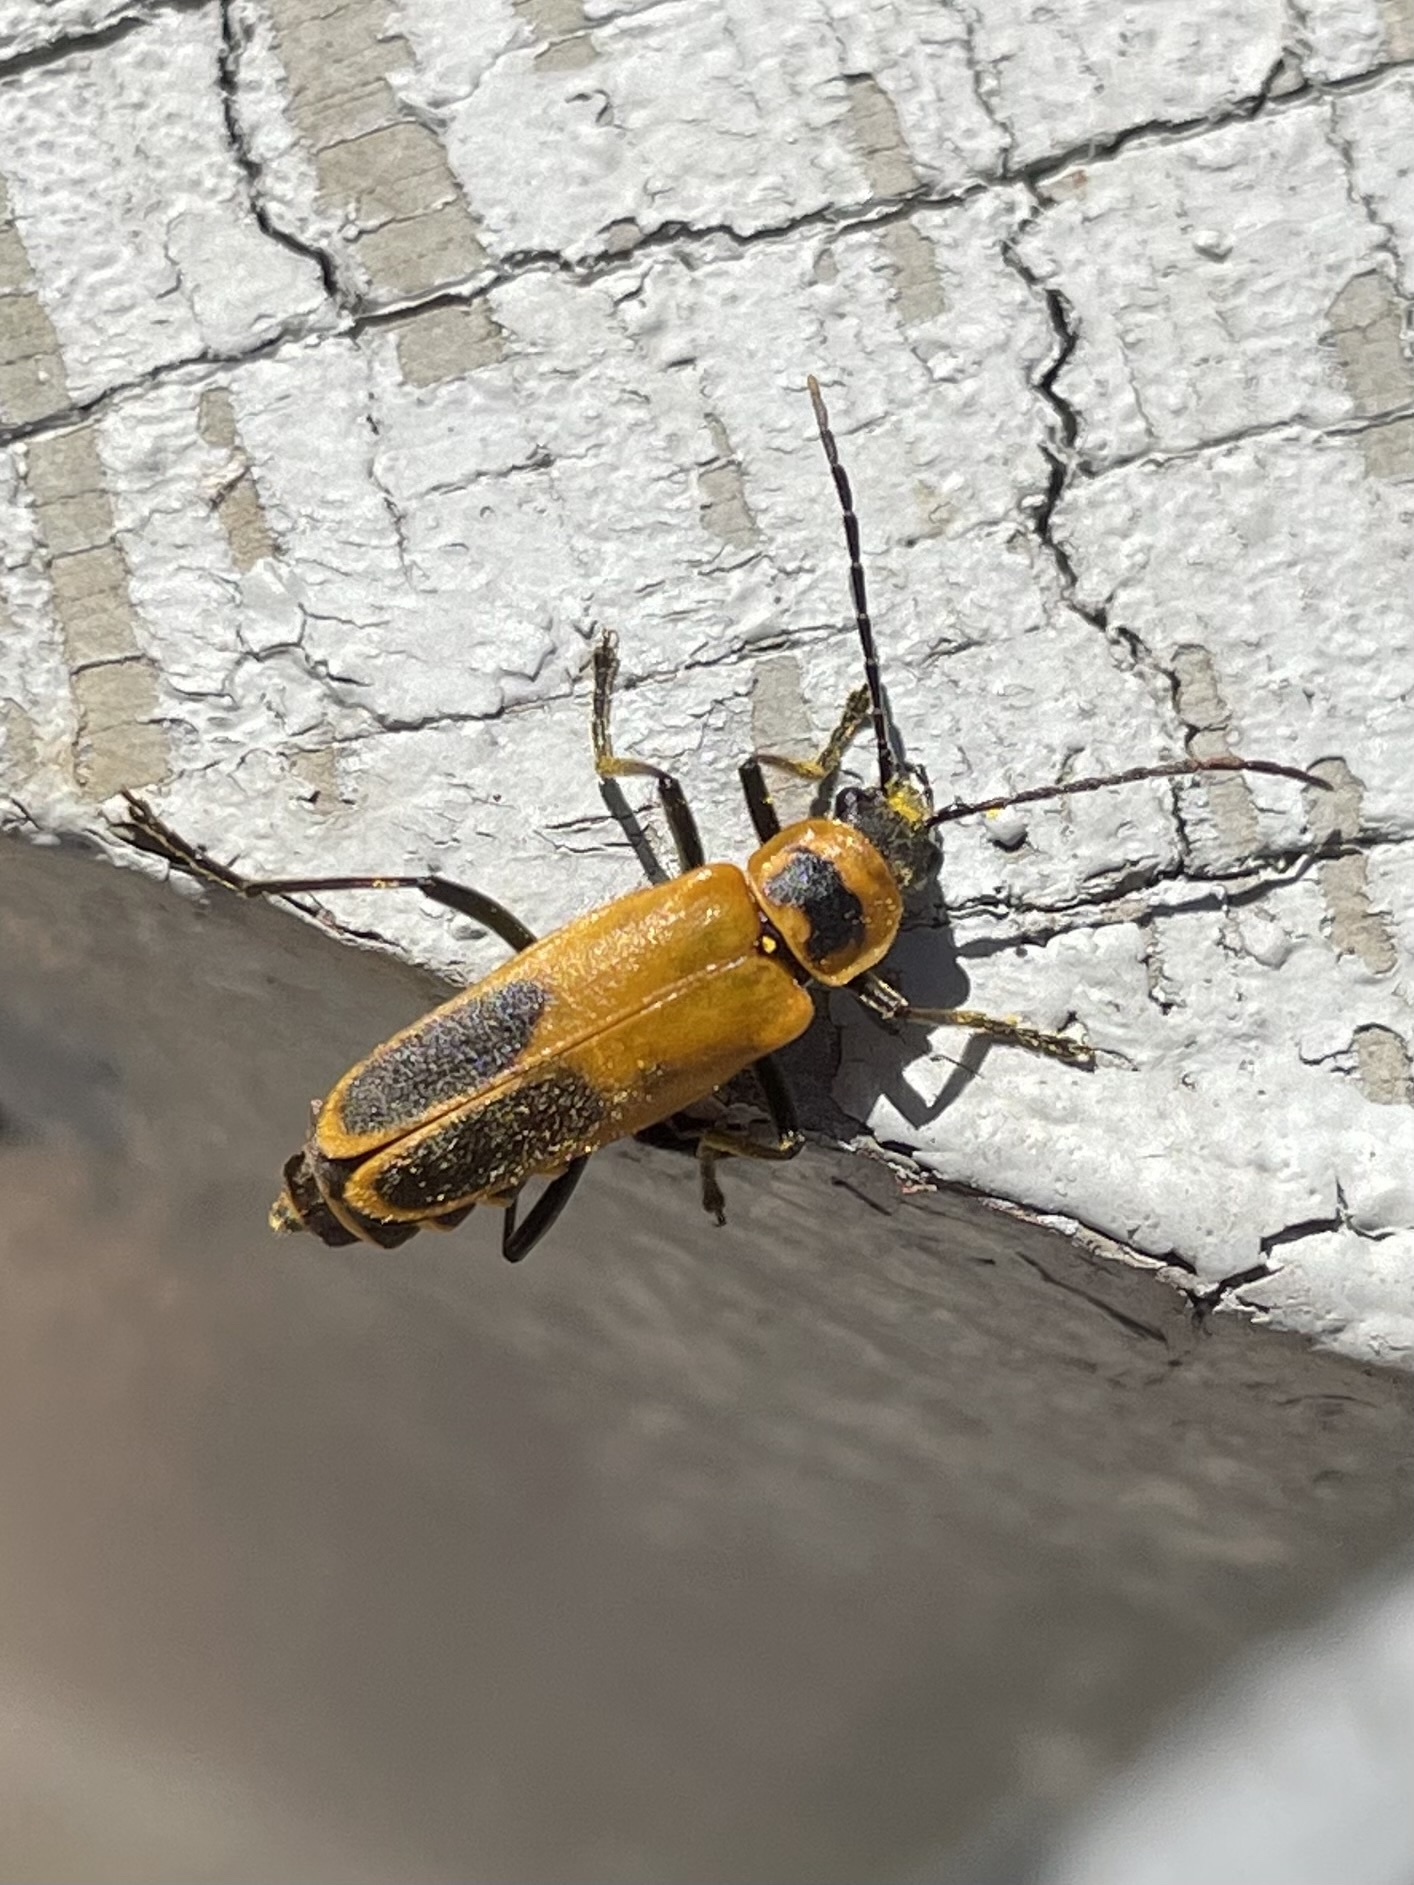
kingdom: Animalia
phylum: Arthropoda
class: Insecta
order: Coleoptera
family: Cantharidae
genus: Chauliognathus
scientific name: Chauliognathus pensylvanicus
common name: Goldenrod soldier beetle
